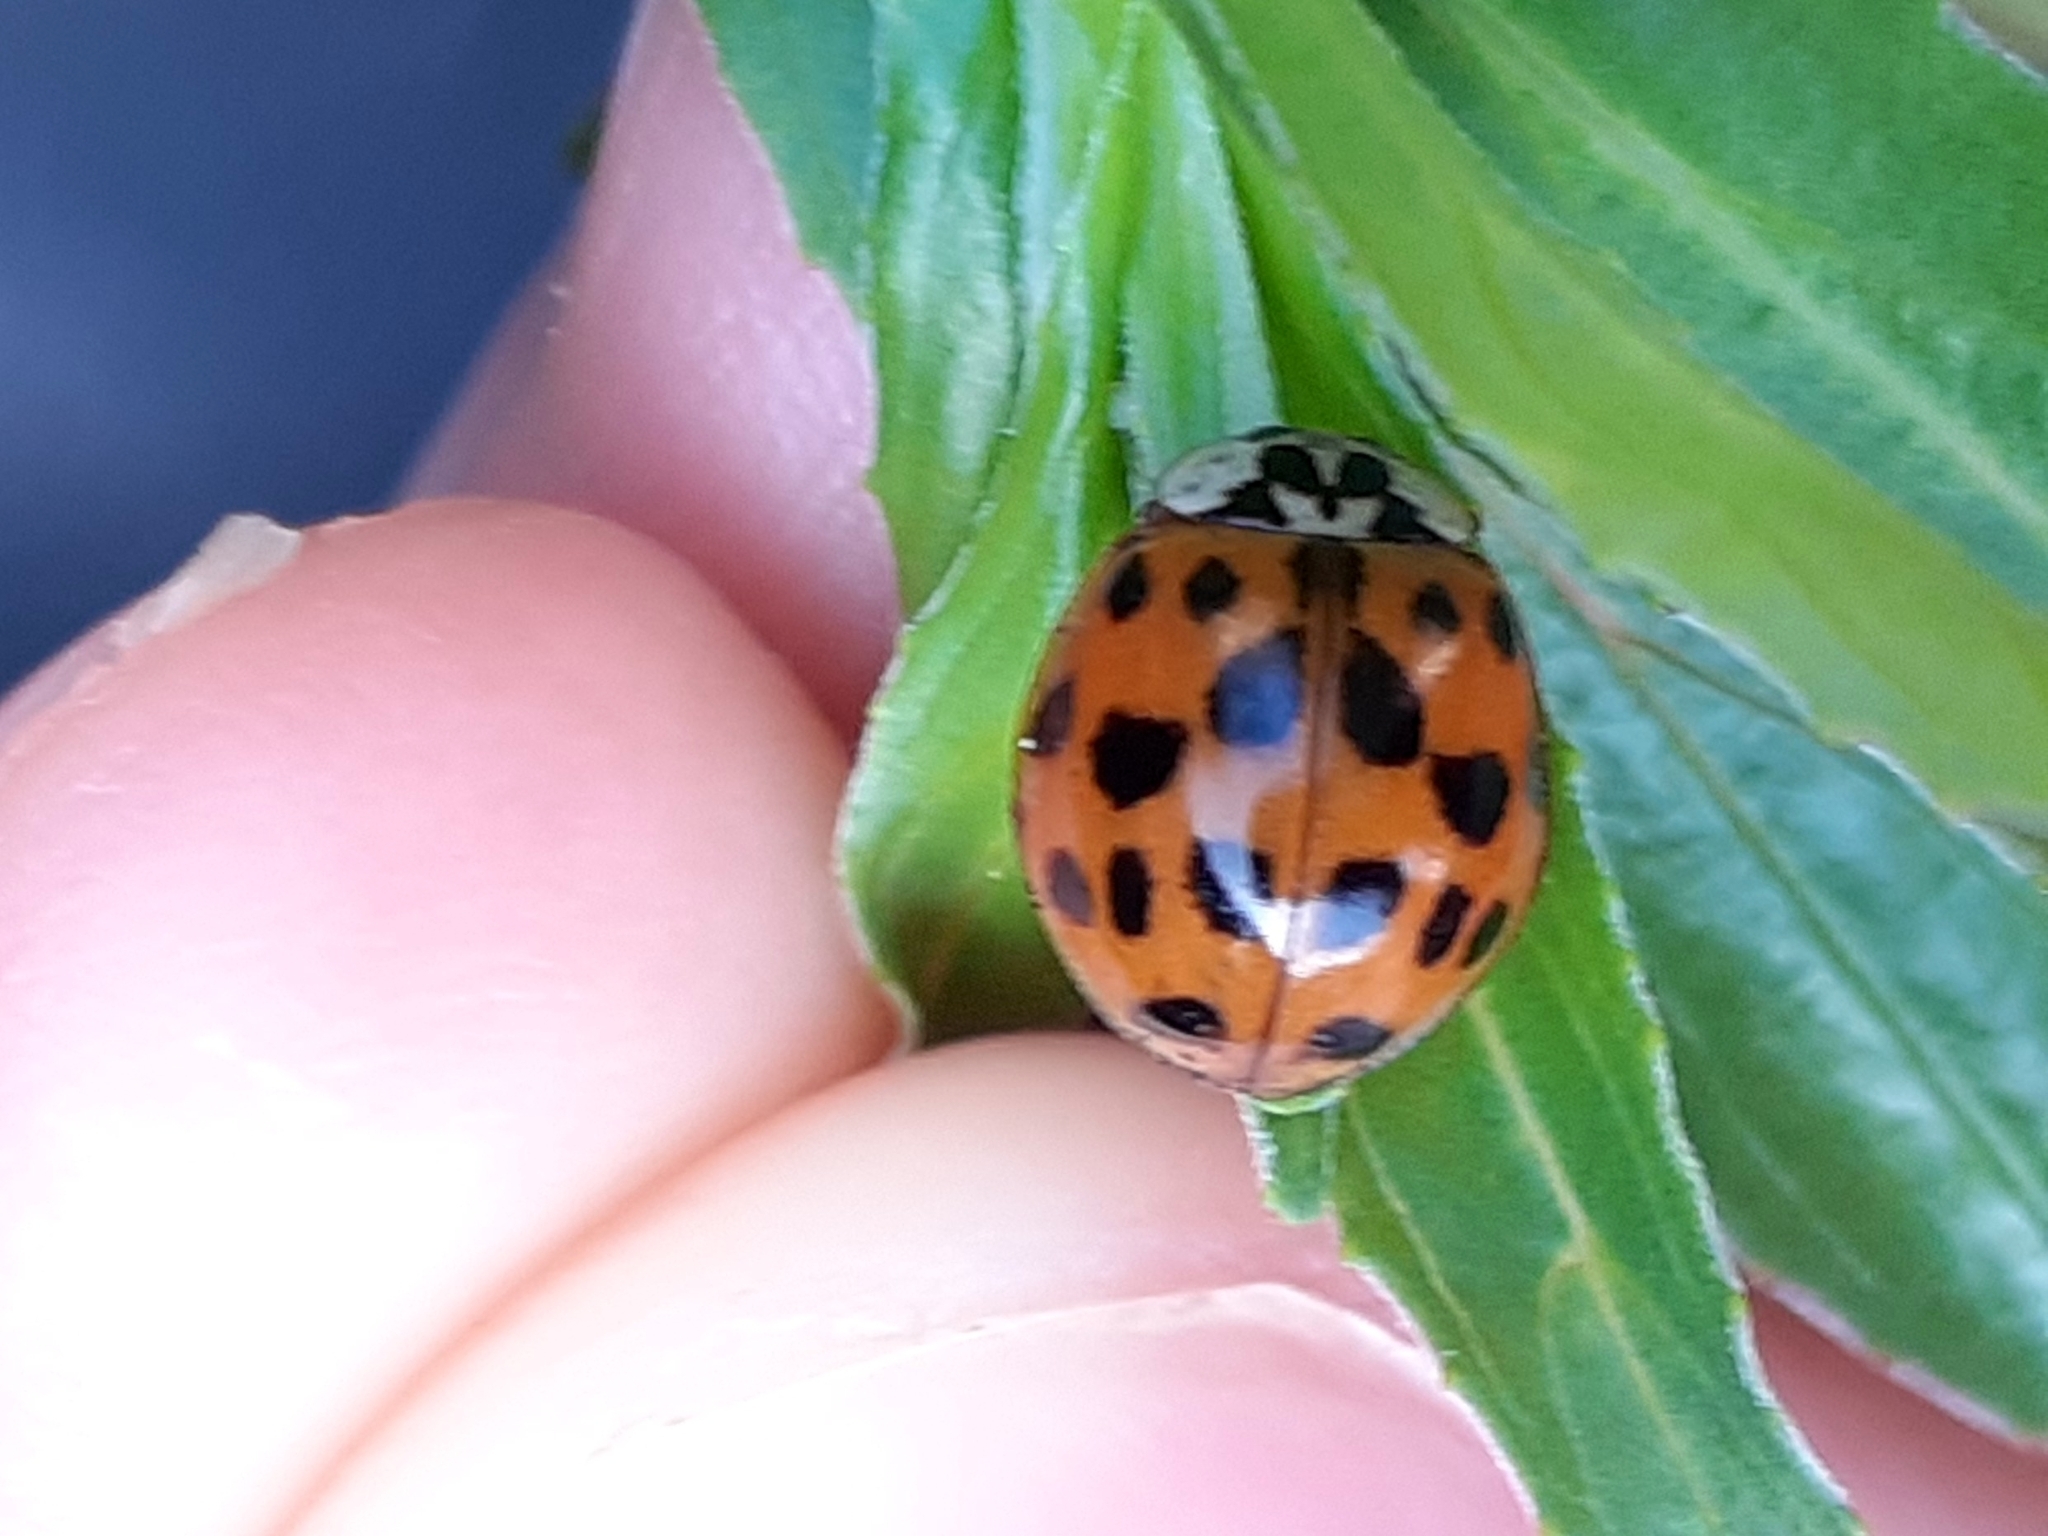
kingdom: Animalia
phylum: Arthropoda
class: Insecta
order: Coleoptera
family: Coccinellidae
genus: Harmonia
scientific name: Harmonia axyridis
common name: Harlequin ladybird
